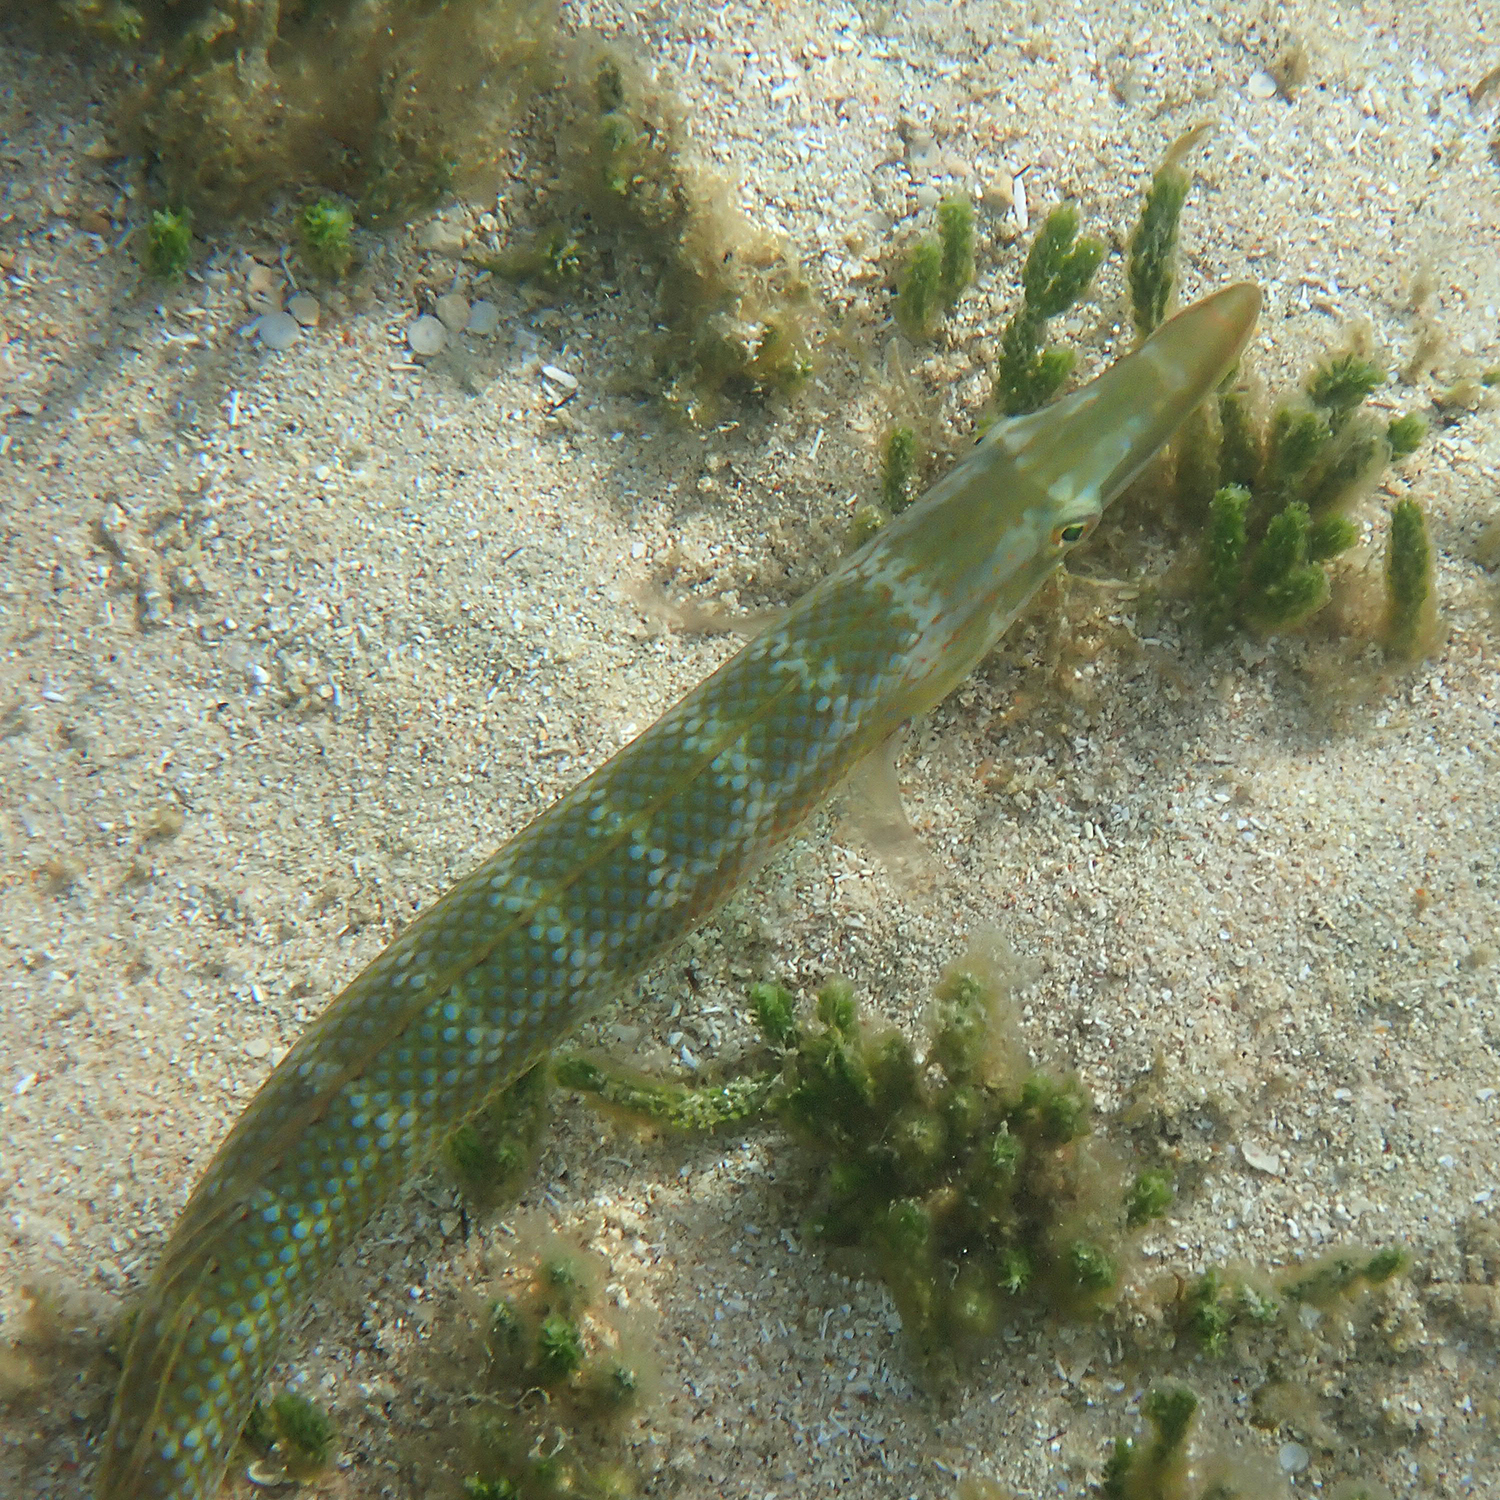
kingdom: Animalia
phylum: Chordata
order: Perciformes
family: Labridae
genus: Cheilio
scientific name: Cheilio inermis
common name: Cigar wrasse
